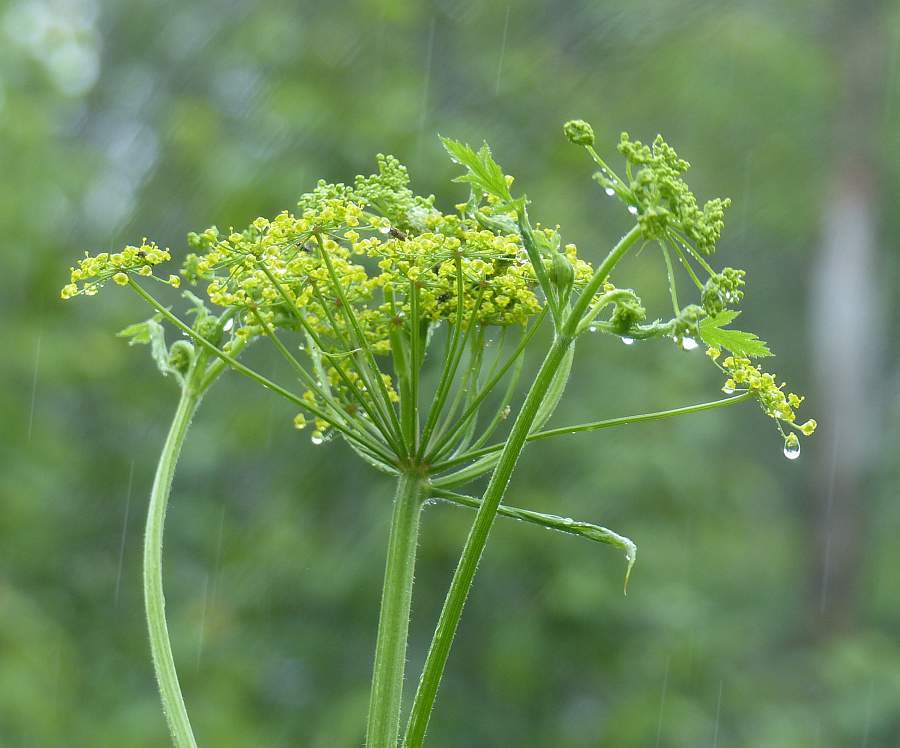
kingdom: Plantae
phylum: Tracheophyta
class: Magnoliopsida
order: Apiales
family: Apiaceae
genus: Pastinaca
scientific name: Pastinaca sativa
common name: Wild parsnip
